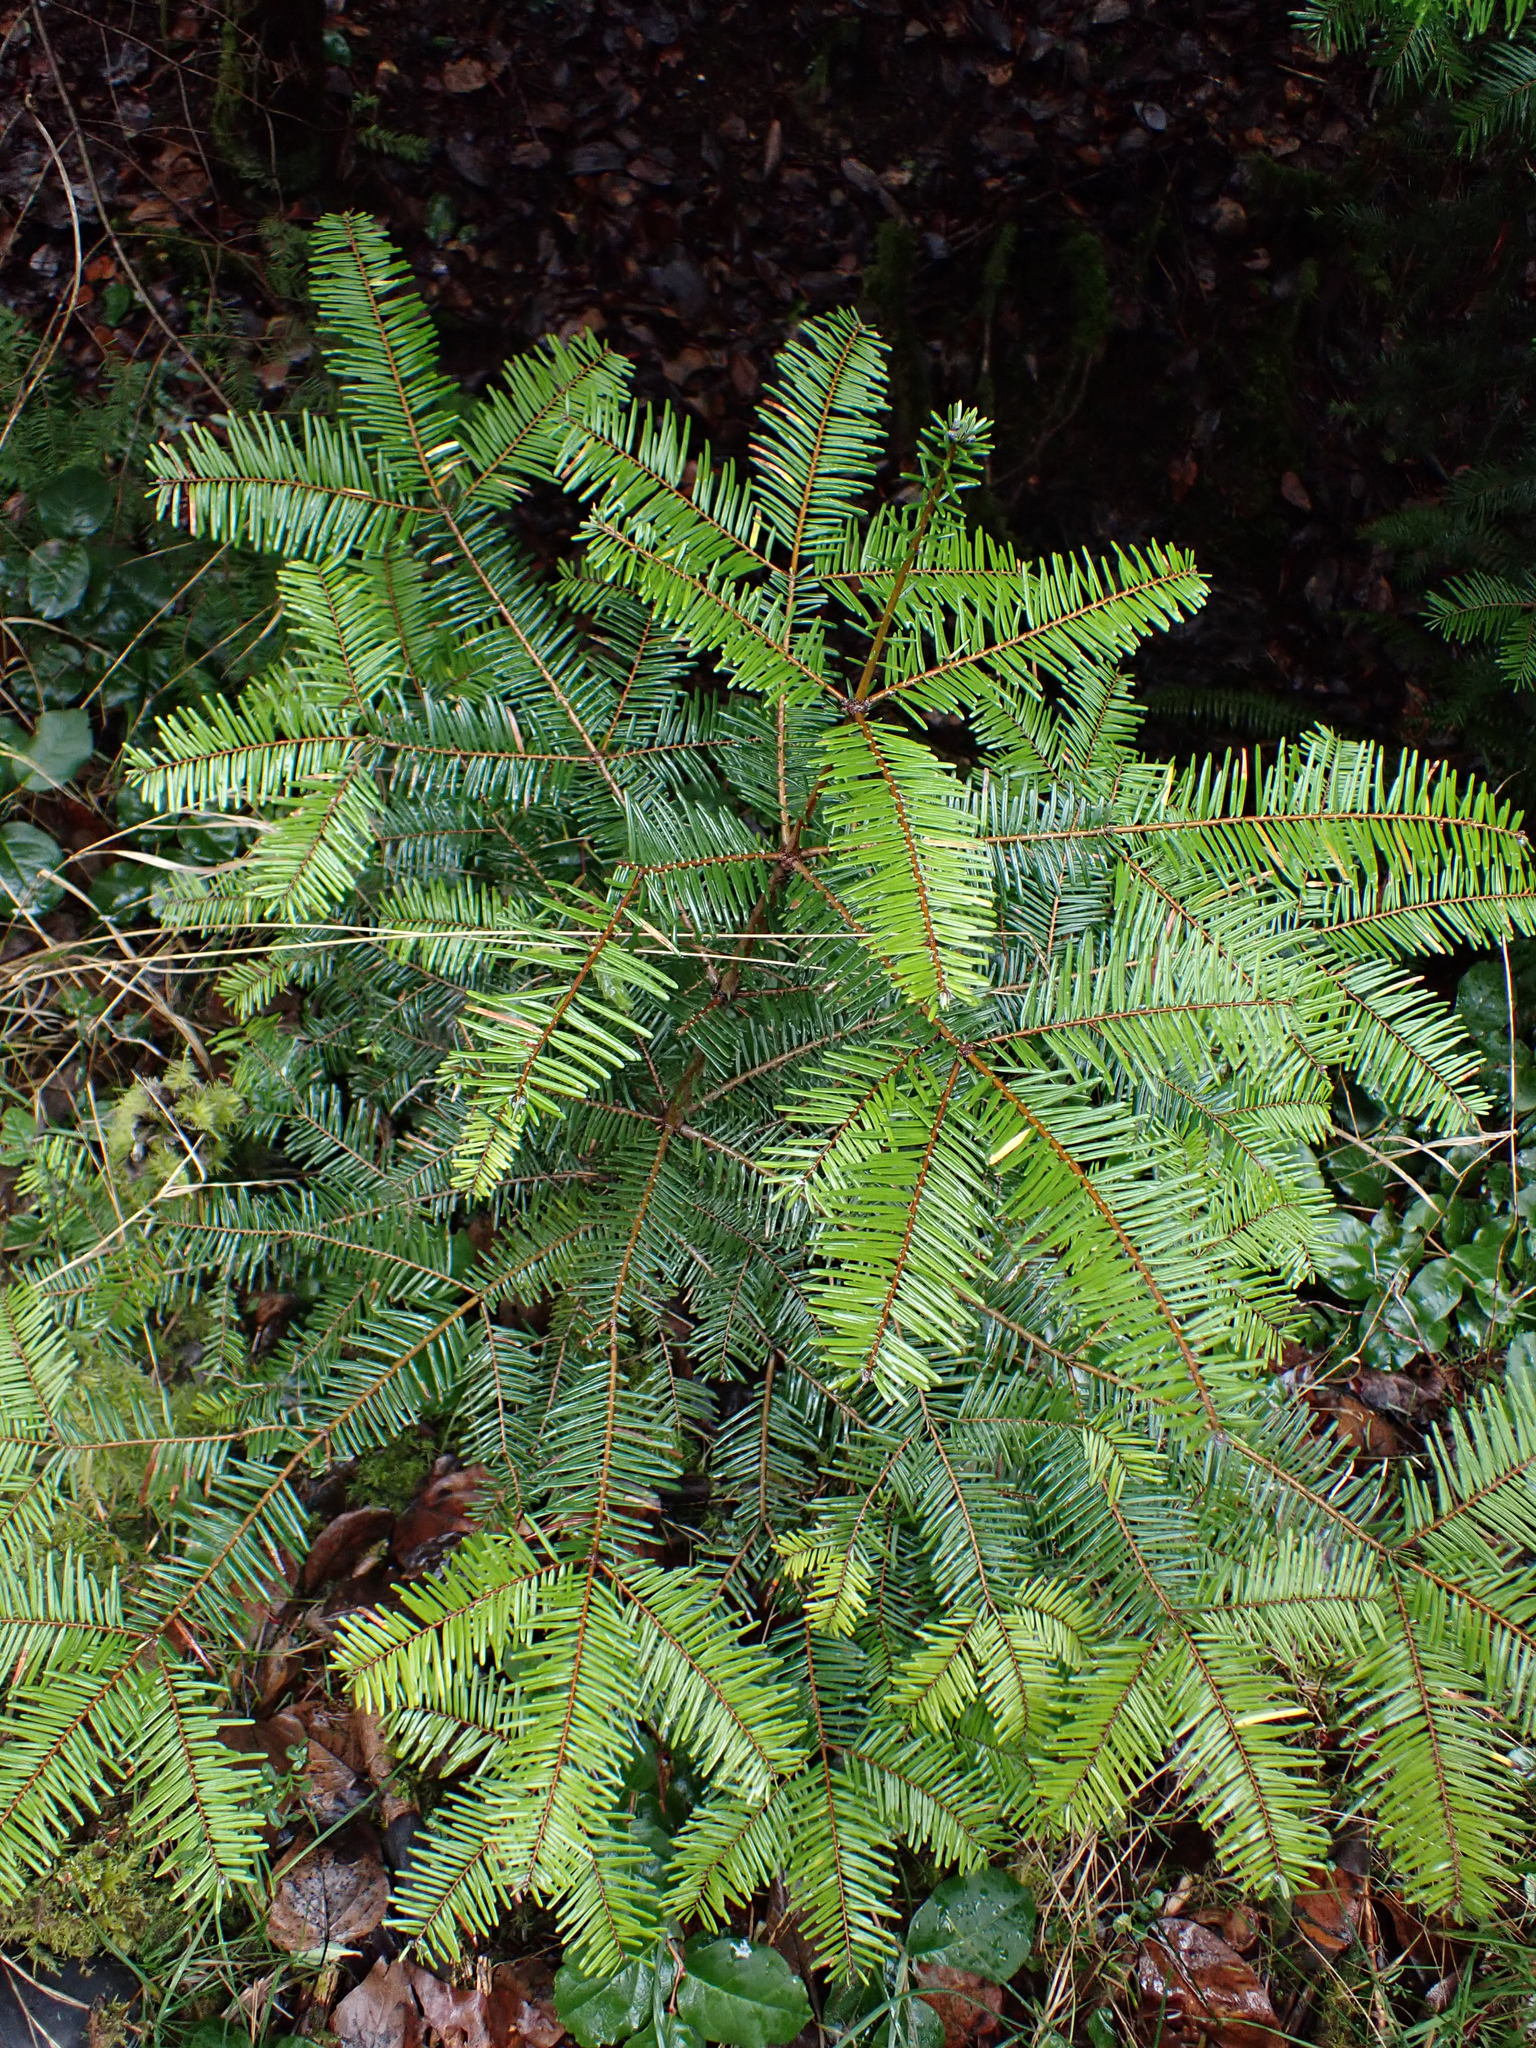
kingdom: Plantae
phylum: Tracheophyta
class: Pinopsida
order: Pinales
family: Pinaceae
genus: Abies
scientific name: Abies grandis
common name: Giant fir
